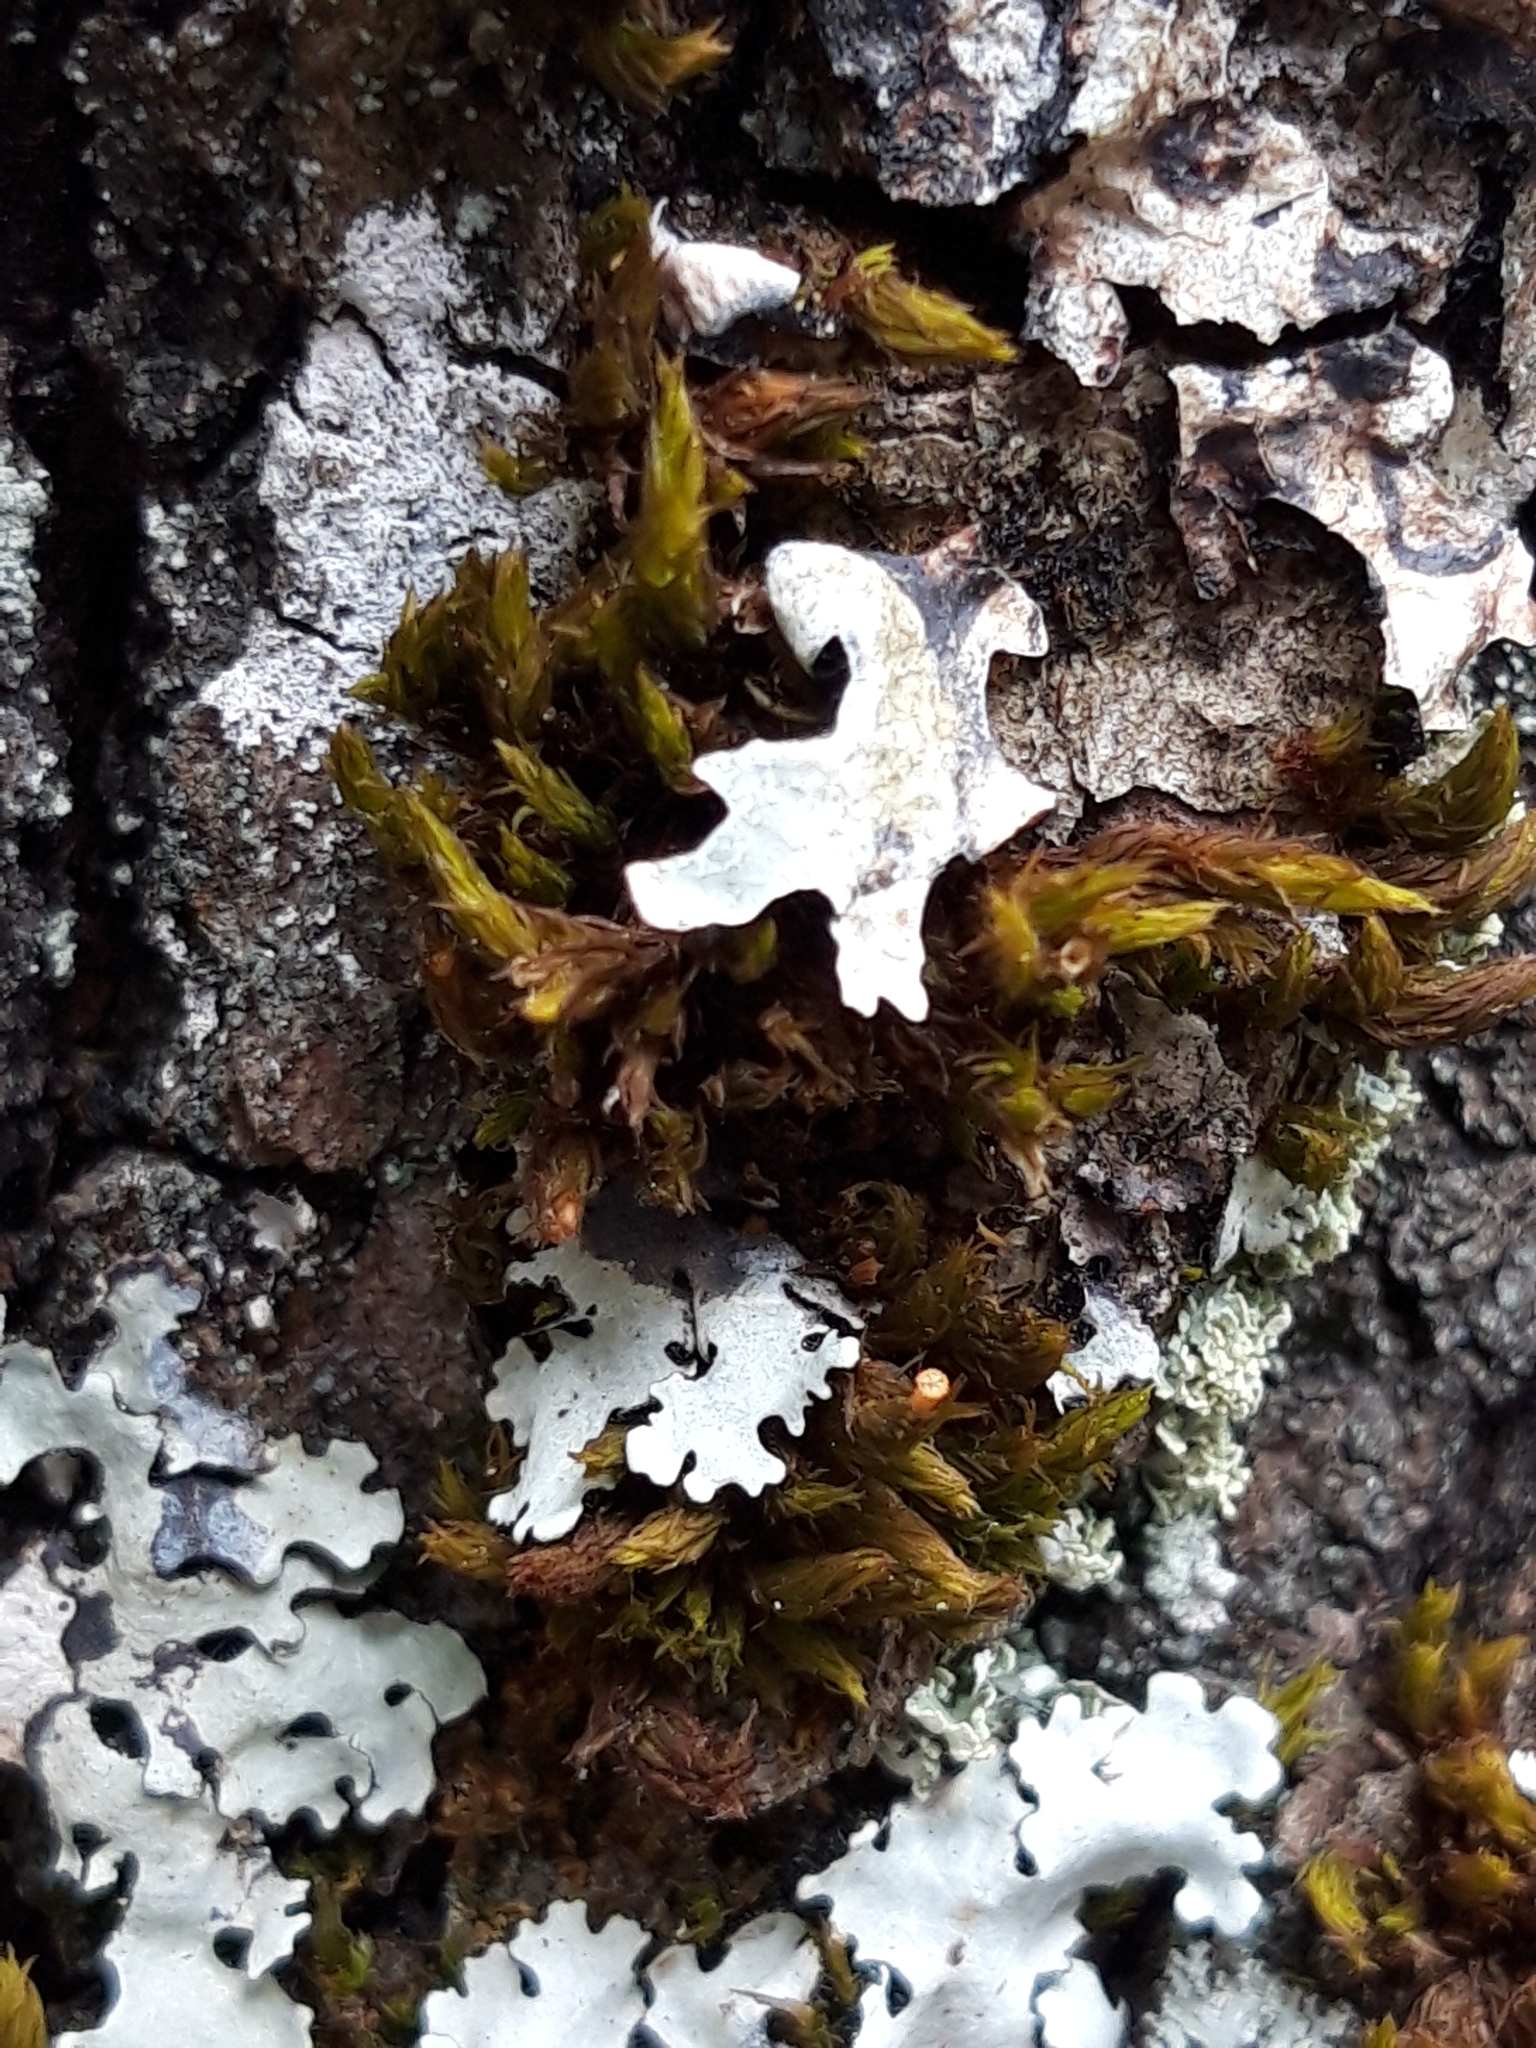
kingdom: Plantae
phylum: Bryophyta
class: Bryopsida
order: Orthotrichales
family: Orthotrichaceae
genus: Lewinskya
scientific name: Lewinskya striata
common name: Shaw's bristle-moss
